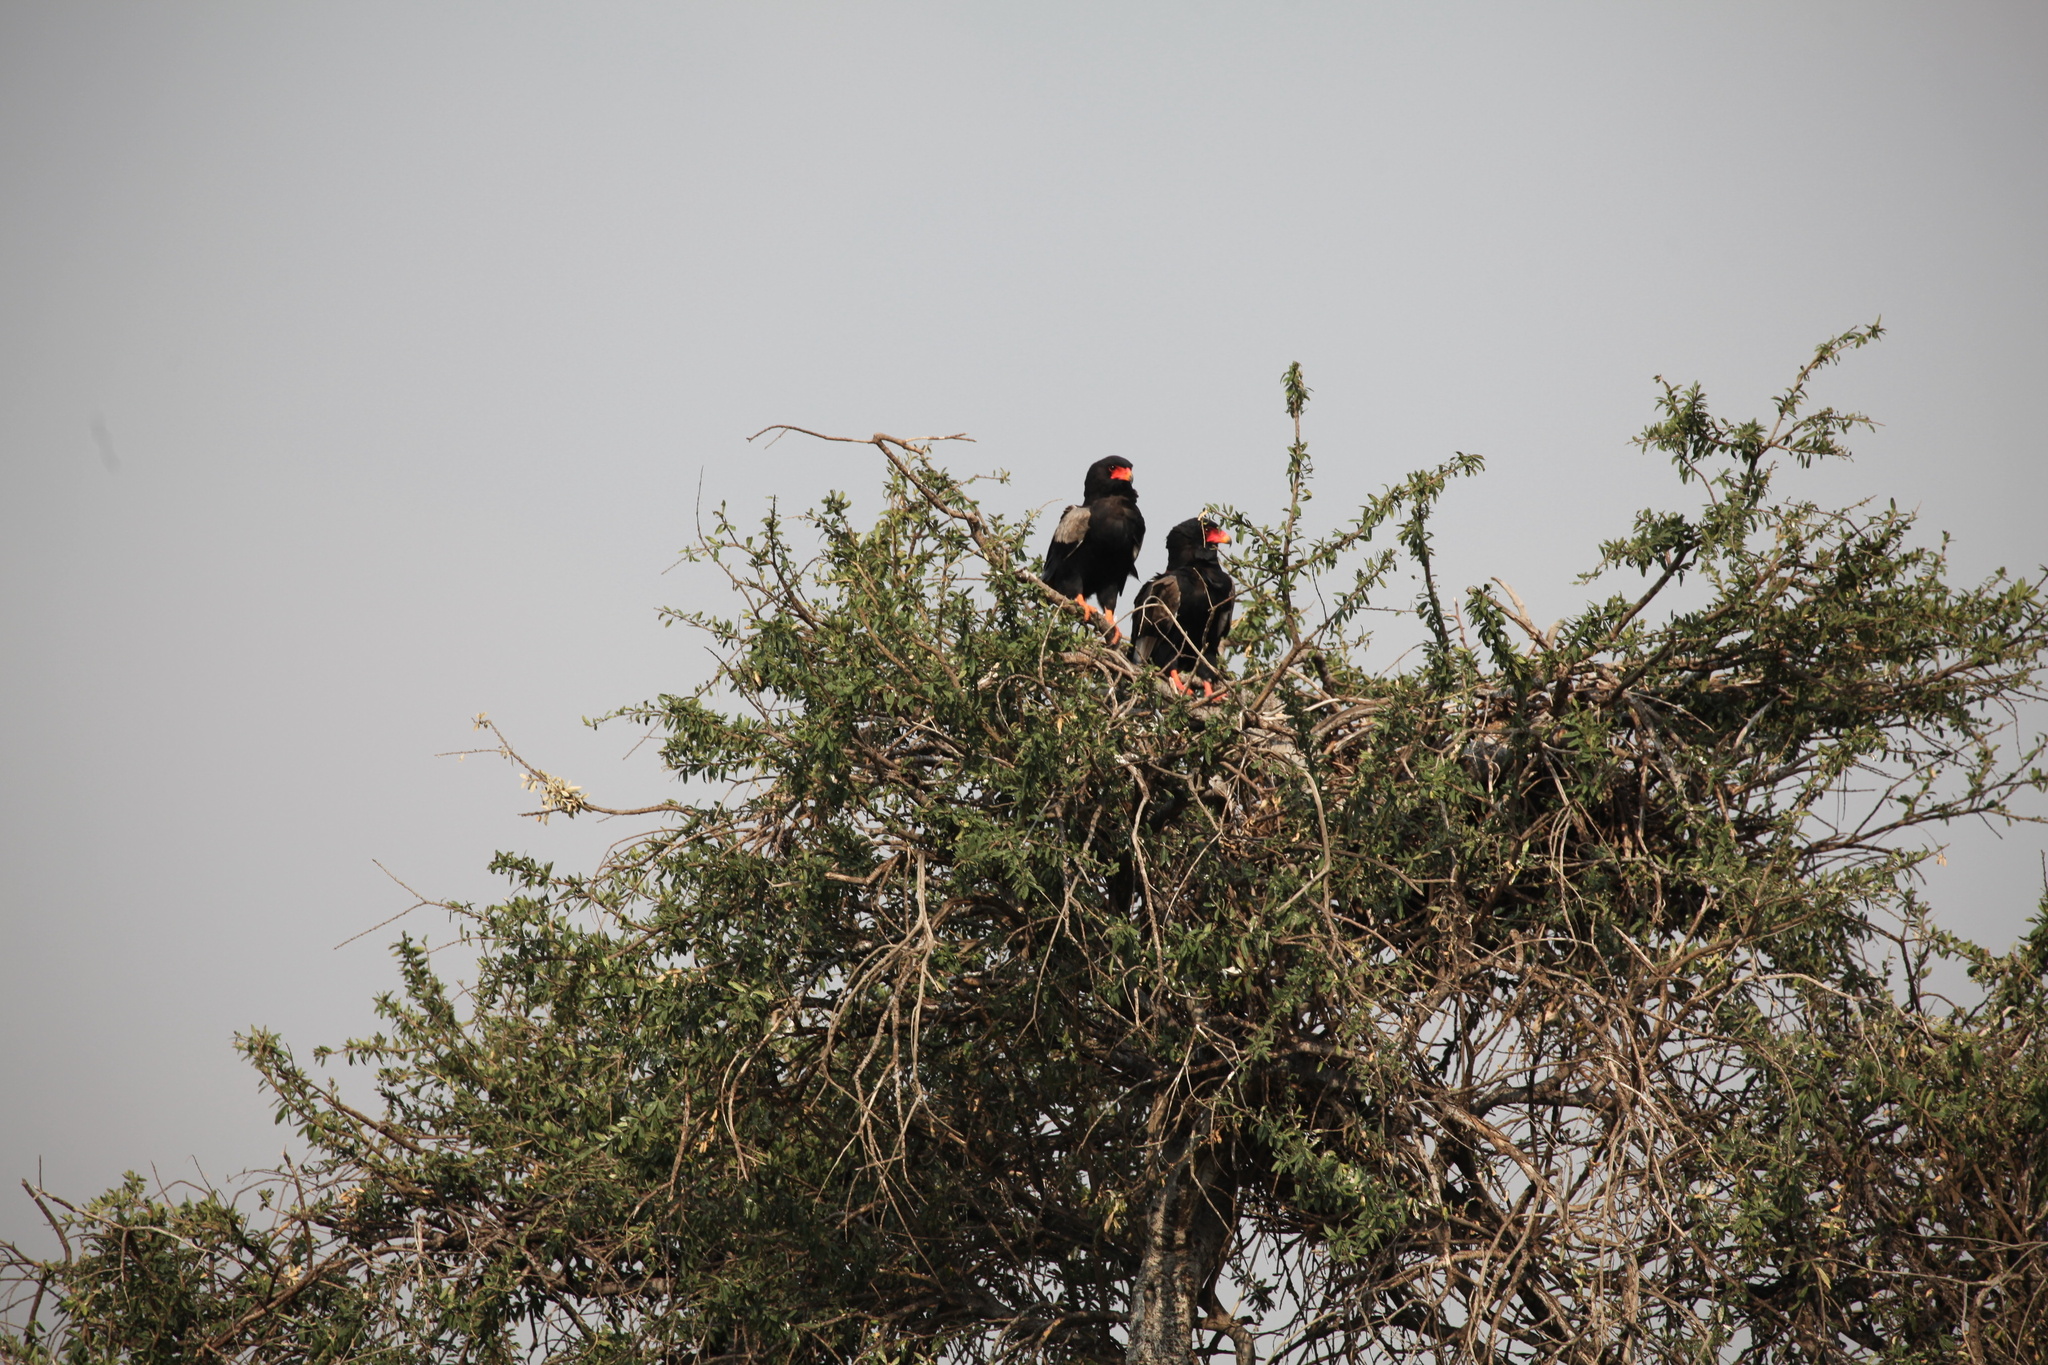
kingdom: Animalia
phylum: Chordata
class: Aves
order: Accipitriformes
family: Accipitridae
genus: Terathopius
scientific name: Terathopius ecaudatus
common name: Bateleur
